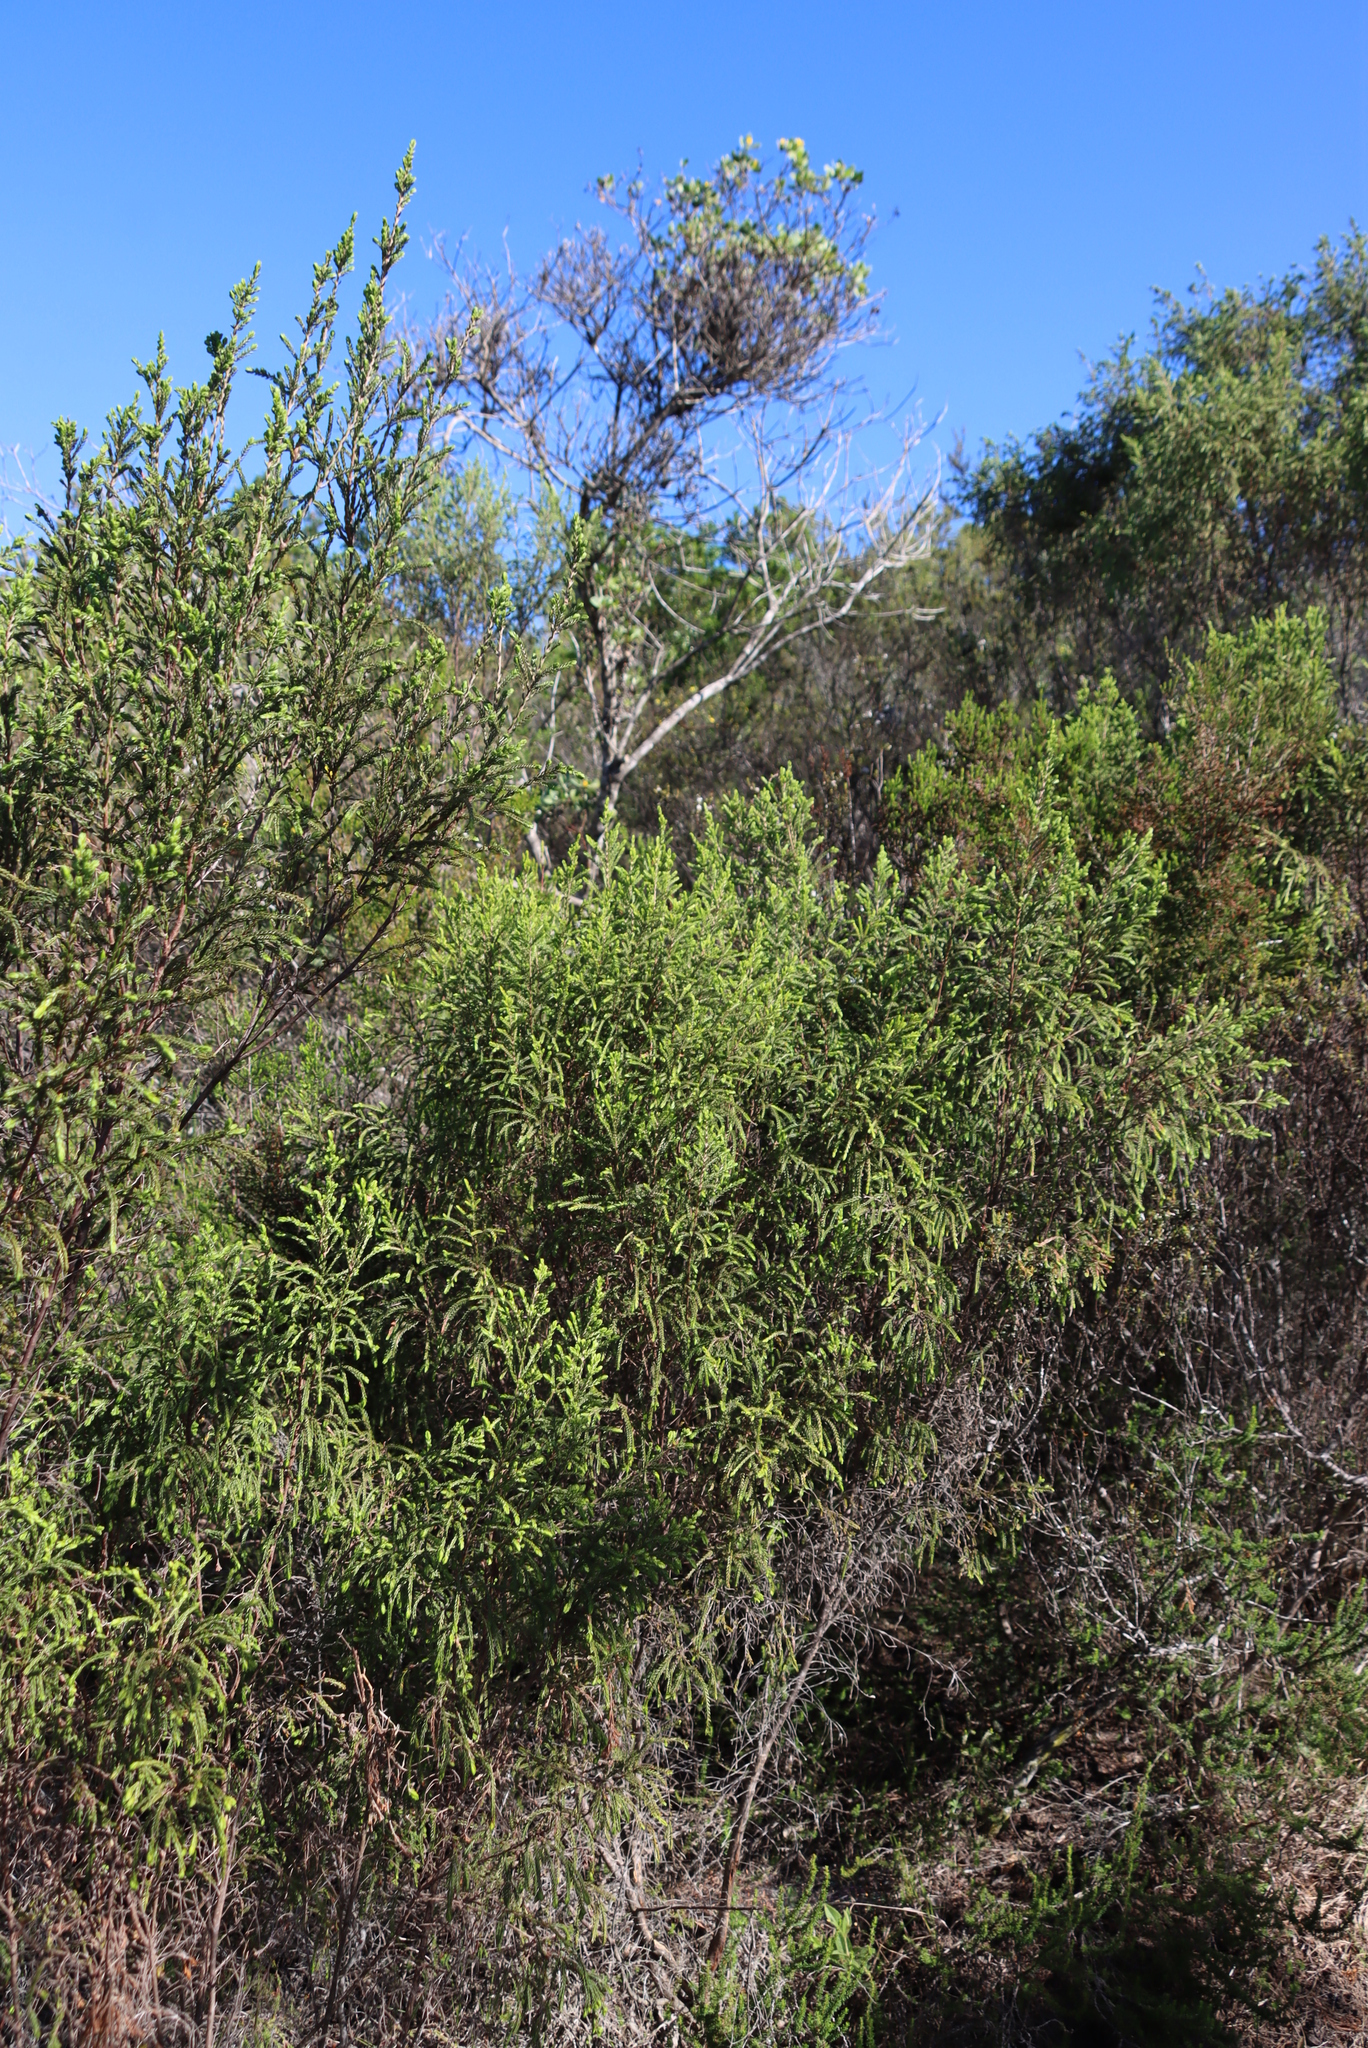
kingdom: Plantae
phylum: Tracheophyta
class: Magnoliopsida
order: Malvales
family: Thymelaeaceae
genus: Passerina
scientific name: Passerina falcifolia
